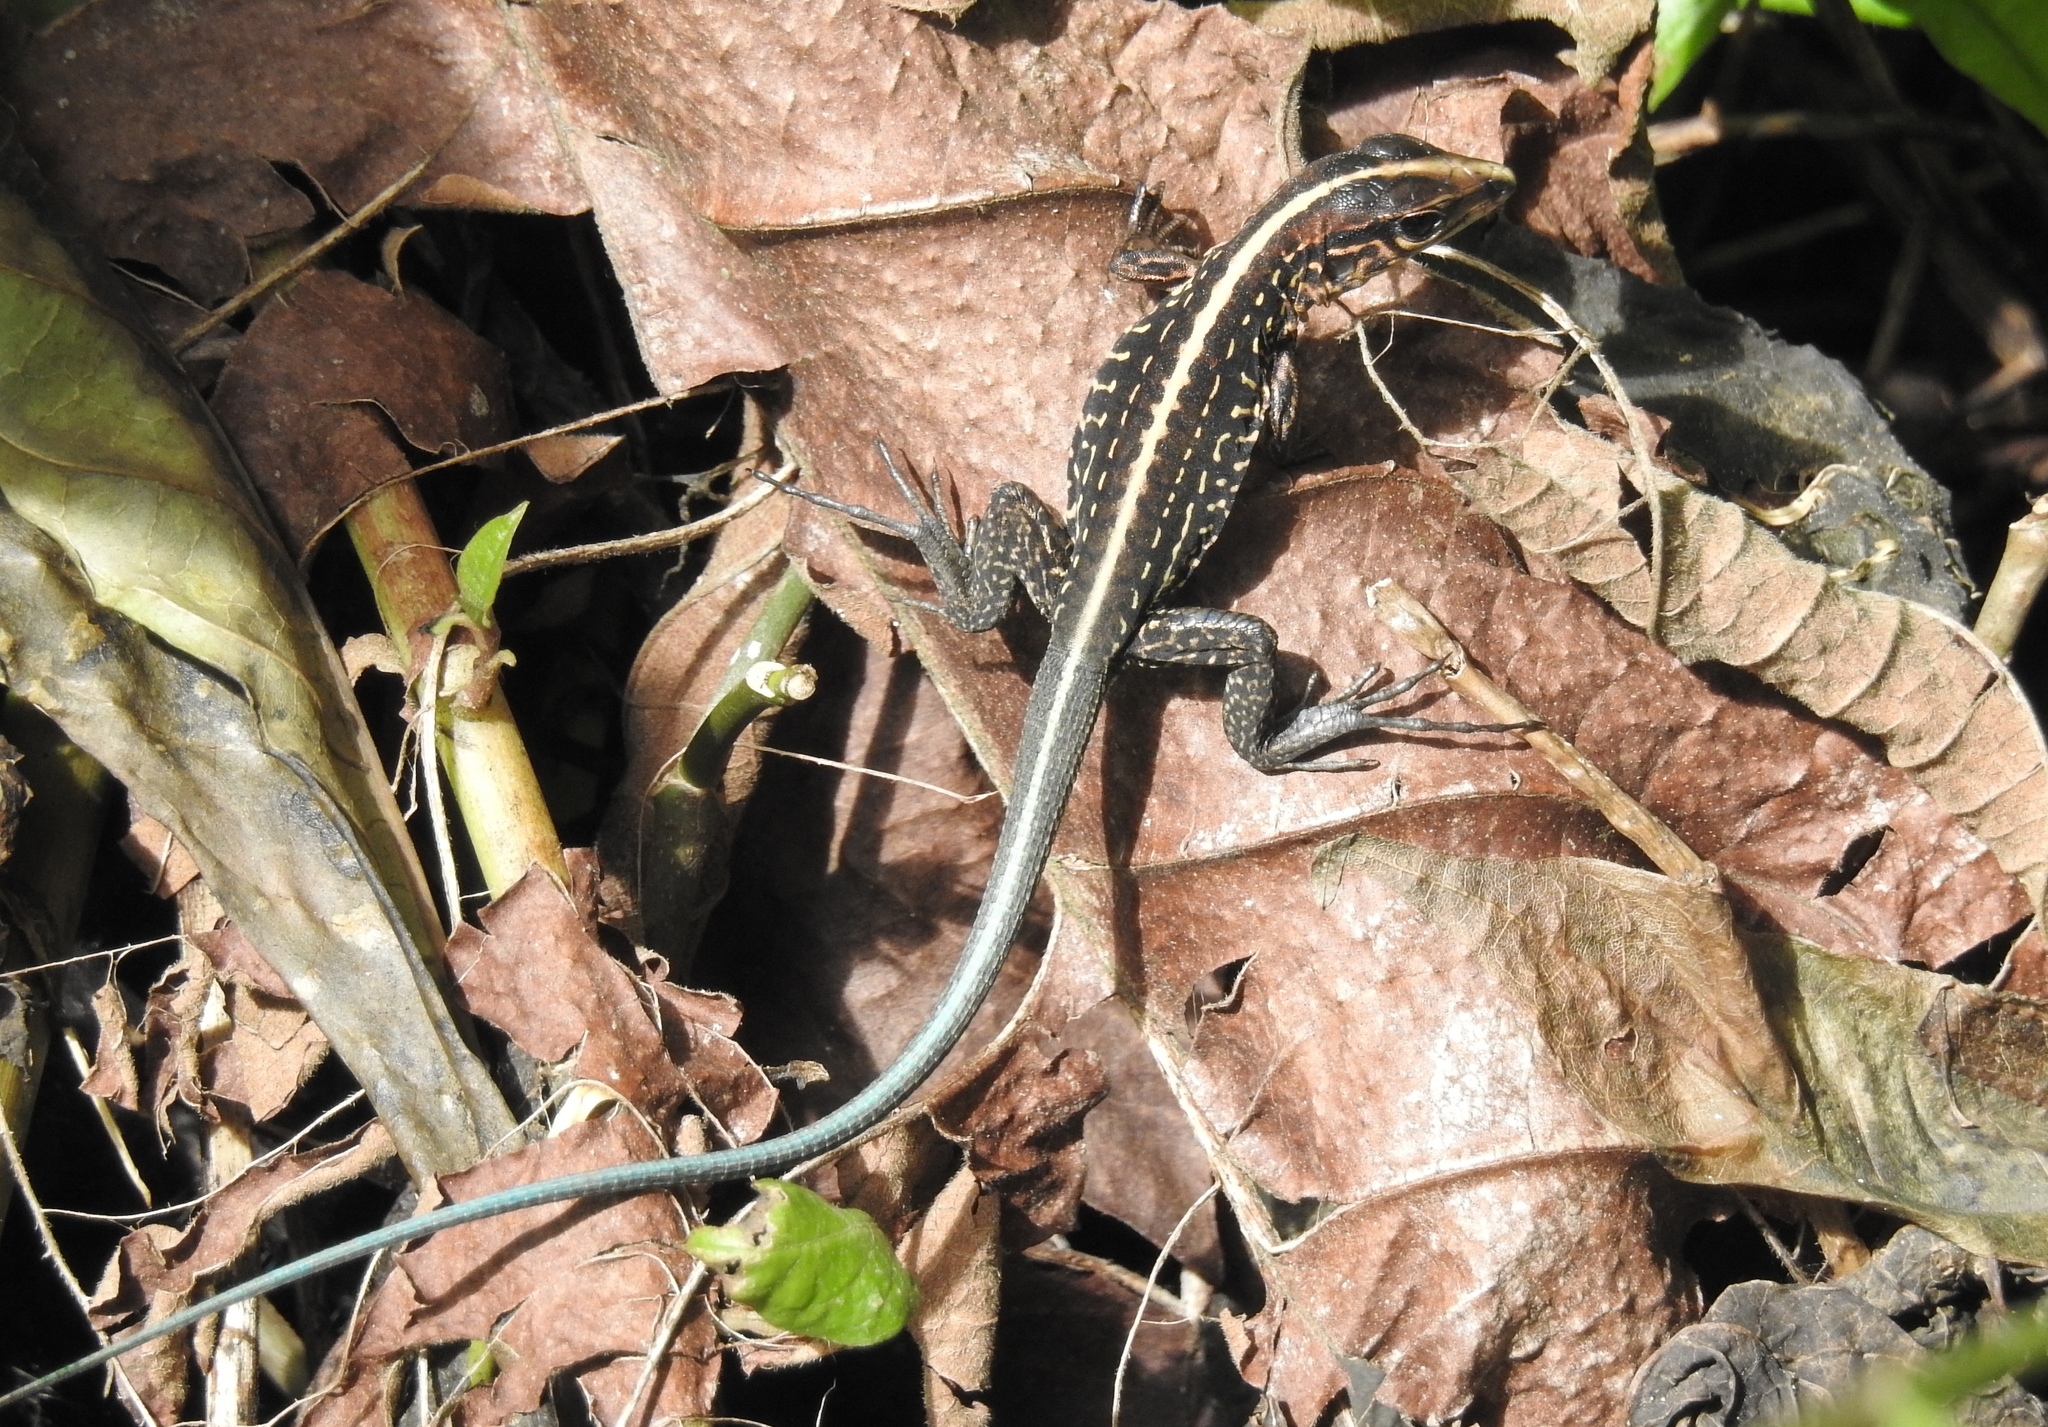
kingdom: Animalia
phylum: Chordata
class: Squamata
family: Teiidae
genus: Holcosus
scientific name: Holcosus festivus
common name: Middle american ameiva
